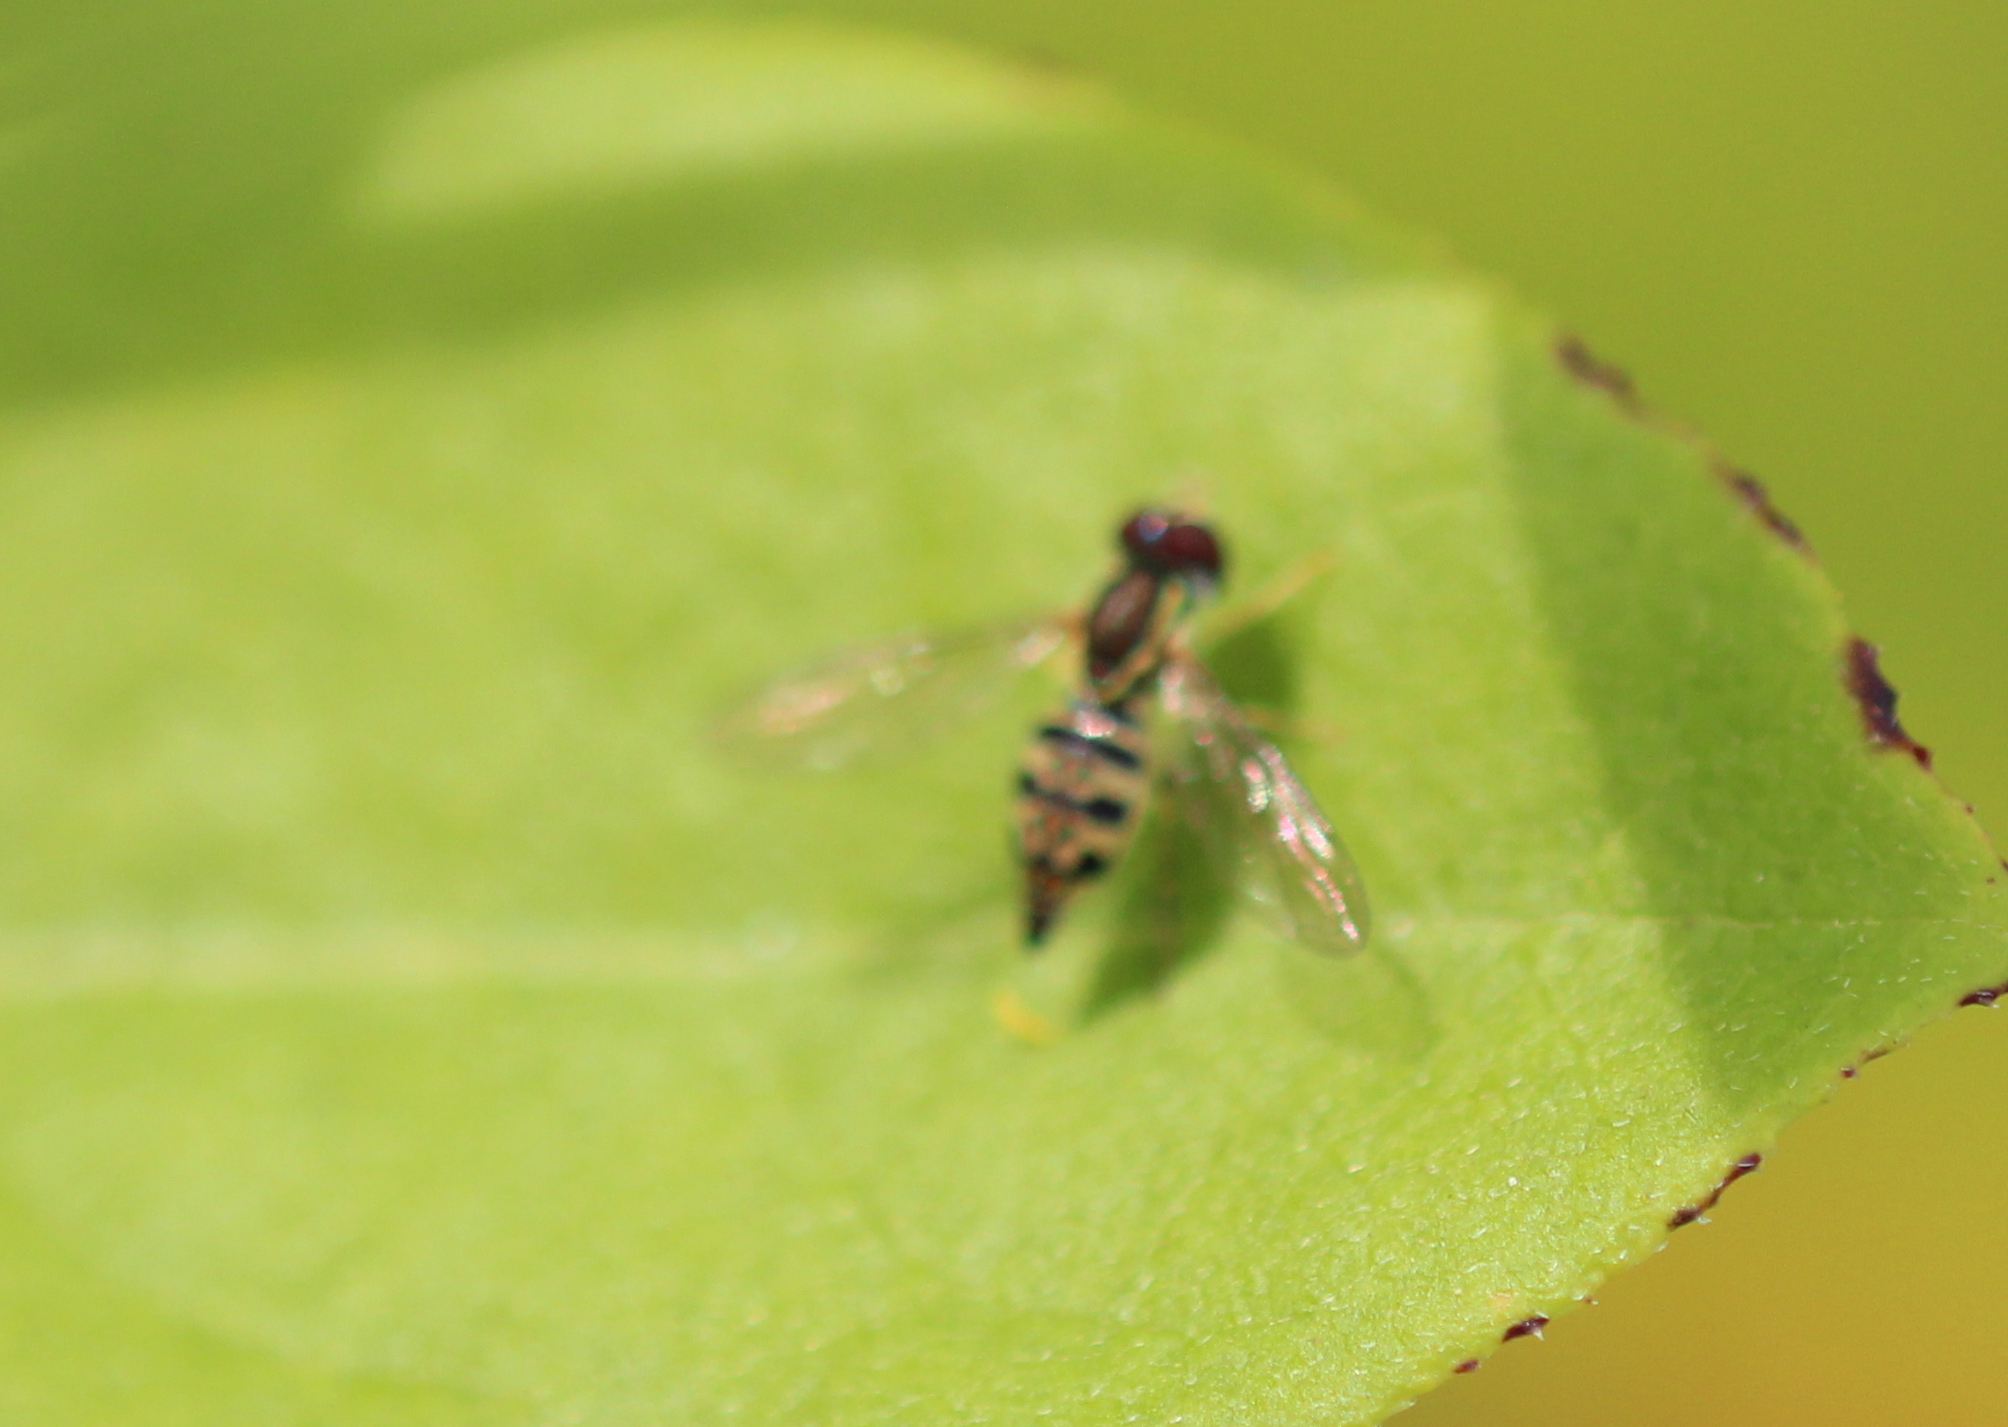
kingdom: Animalia
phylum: Arthropoda
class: Insecta
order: Diptera
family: Syrphidae
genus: Toxomerus
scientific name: Toxomerus geminatus
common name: Eastern calligrapher
